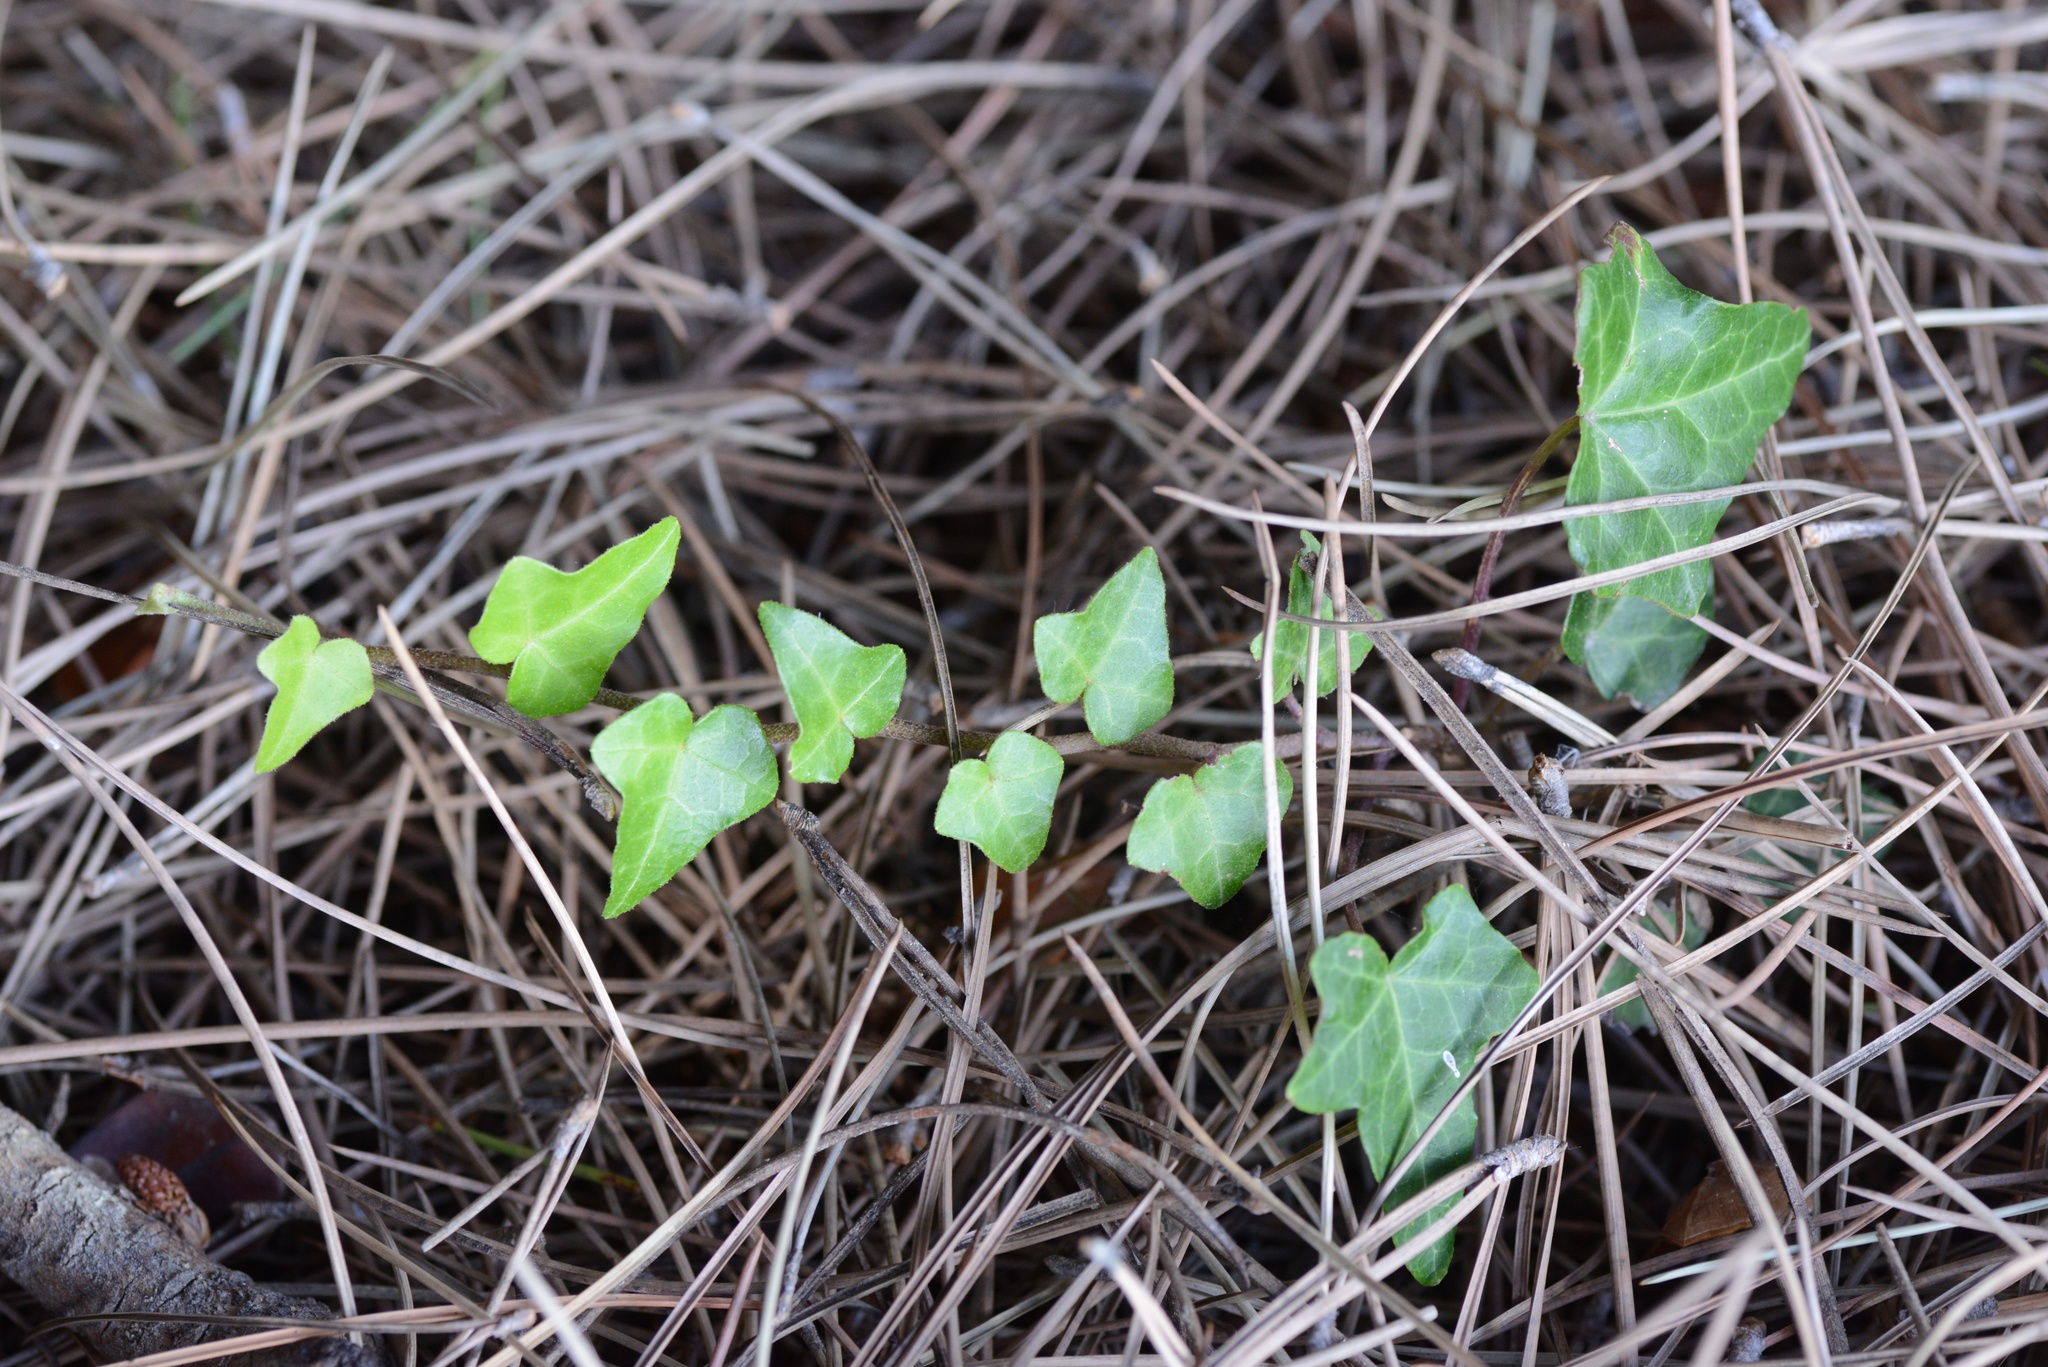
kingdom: Plantae
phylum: Tracheophyta
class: Magnoliopsida
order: Apiales
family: Araliaceae
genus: Hedera
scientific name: Hedera helix
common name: Ivy
